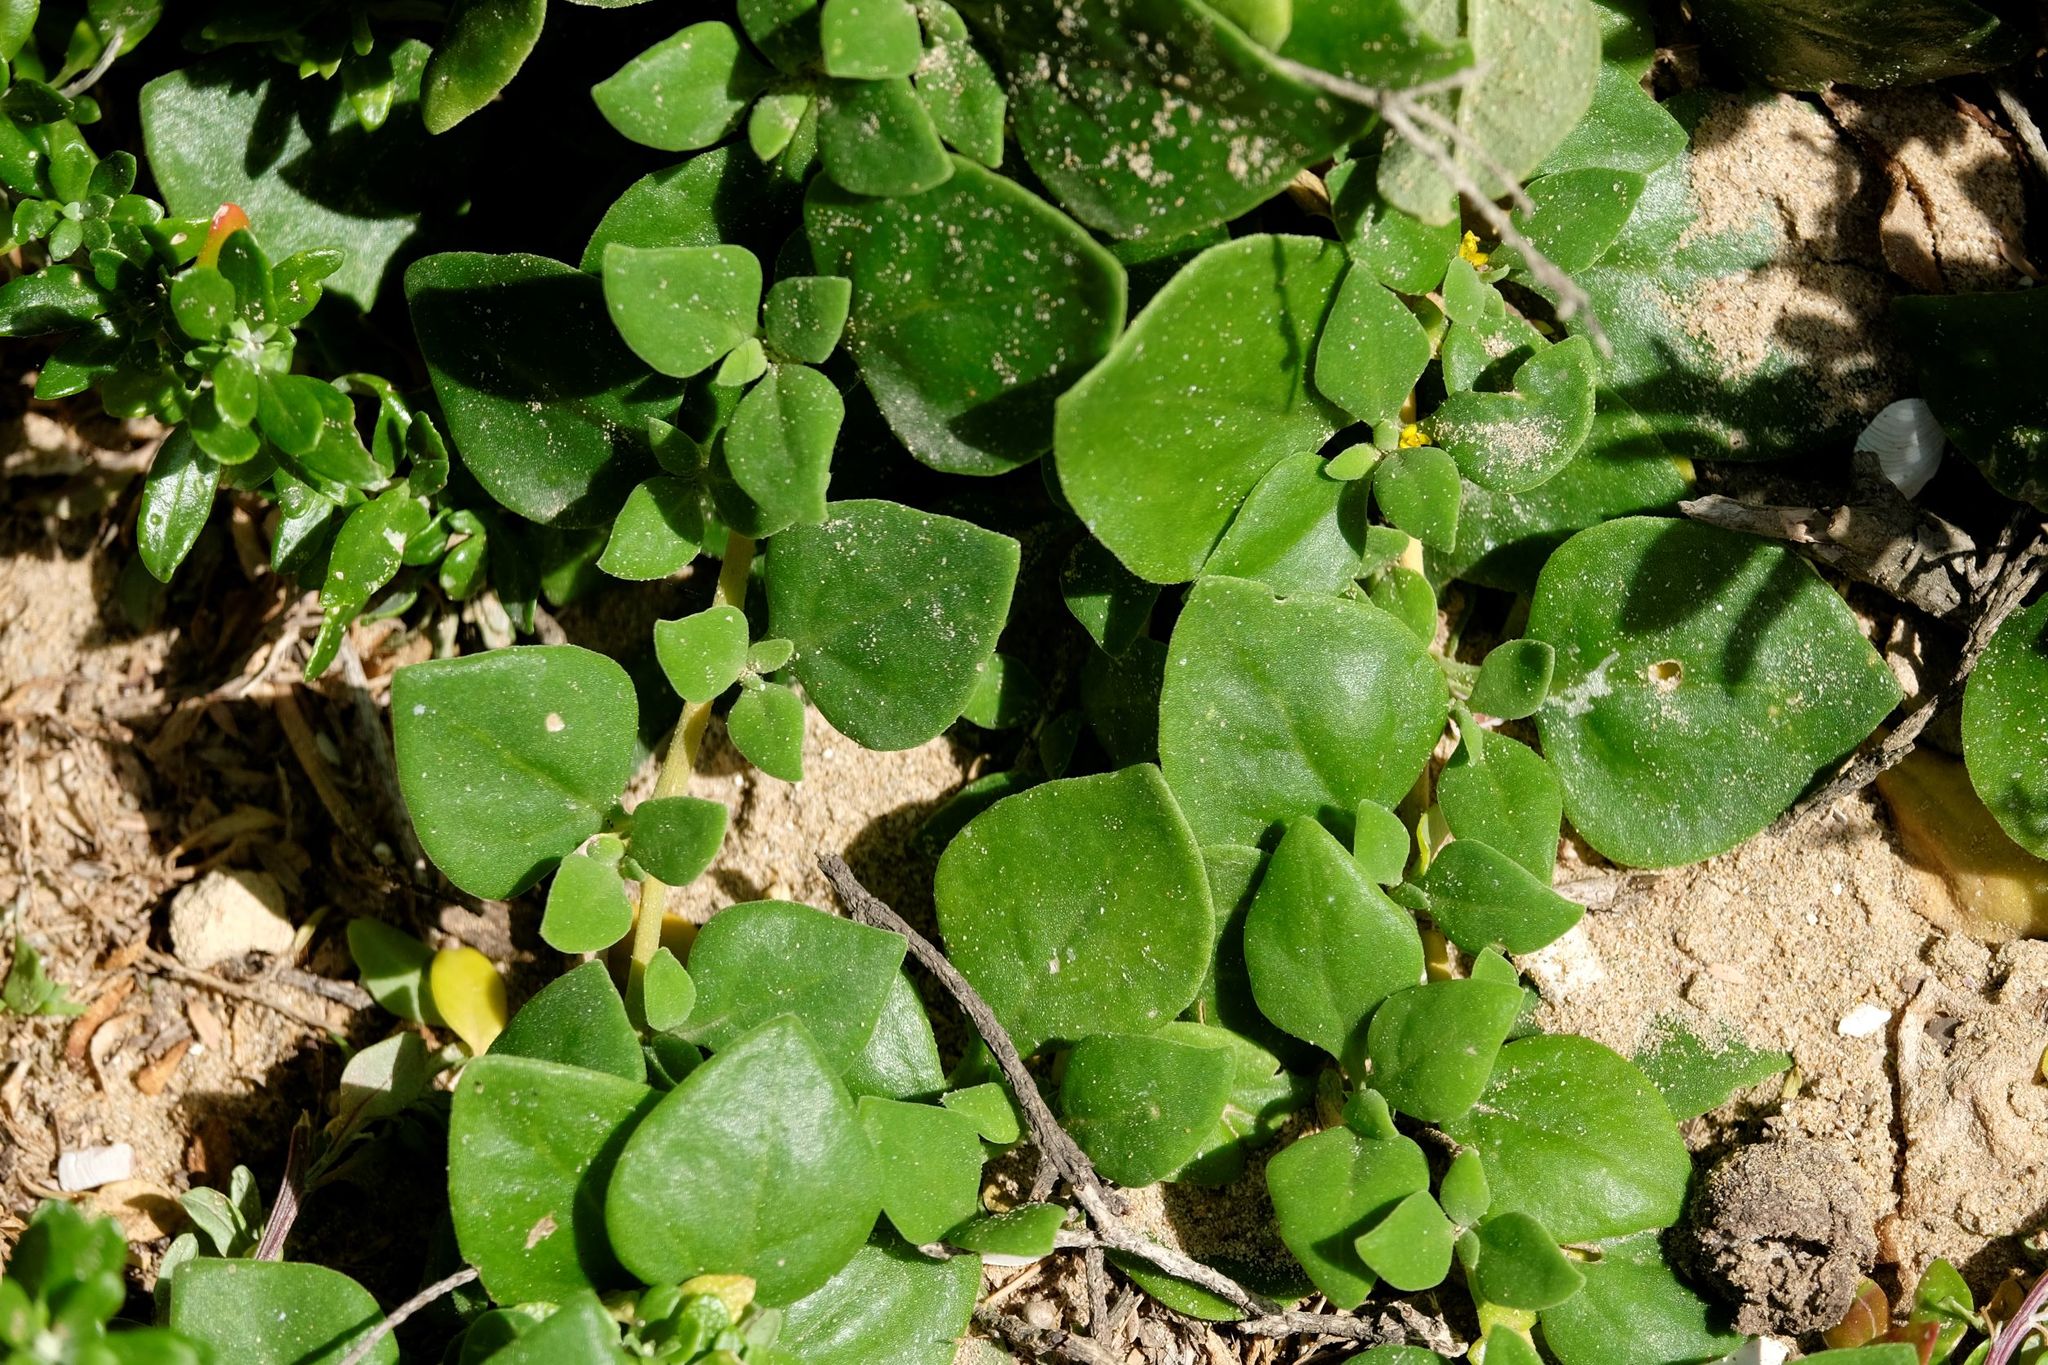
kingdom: Plantae
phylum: Tracheophyta
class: Magnoliopsida
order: Caryophyllales
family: Aizoaceae
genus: Tetragonia
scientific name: Tetragonia implexicoma
